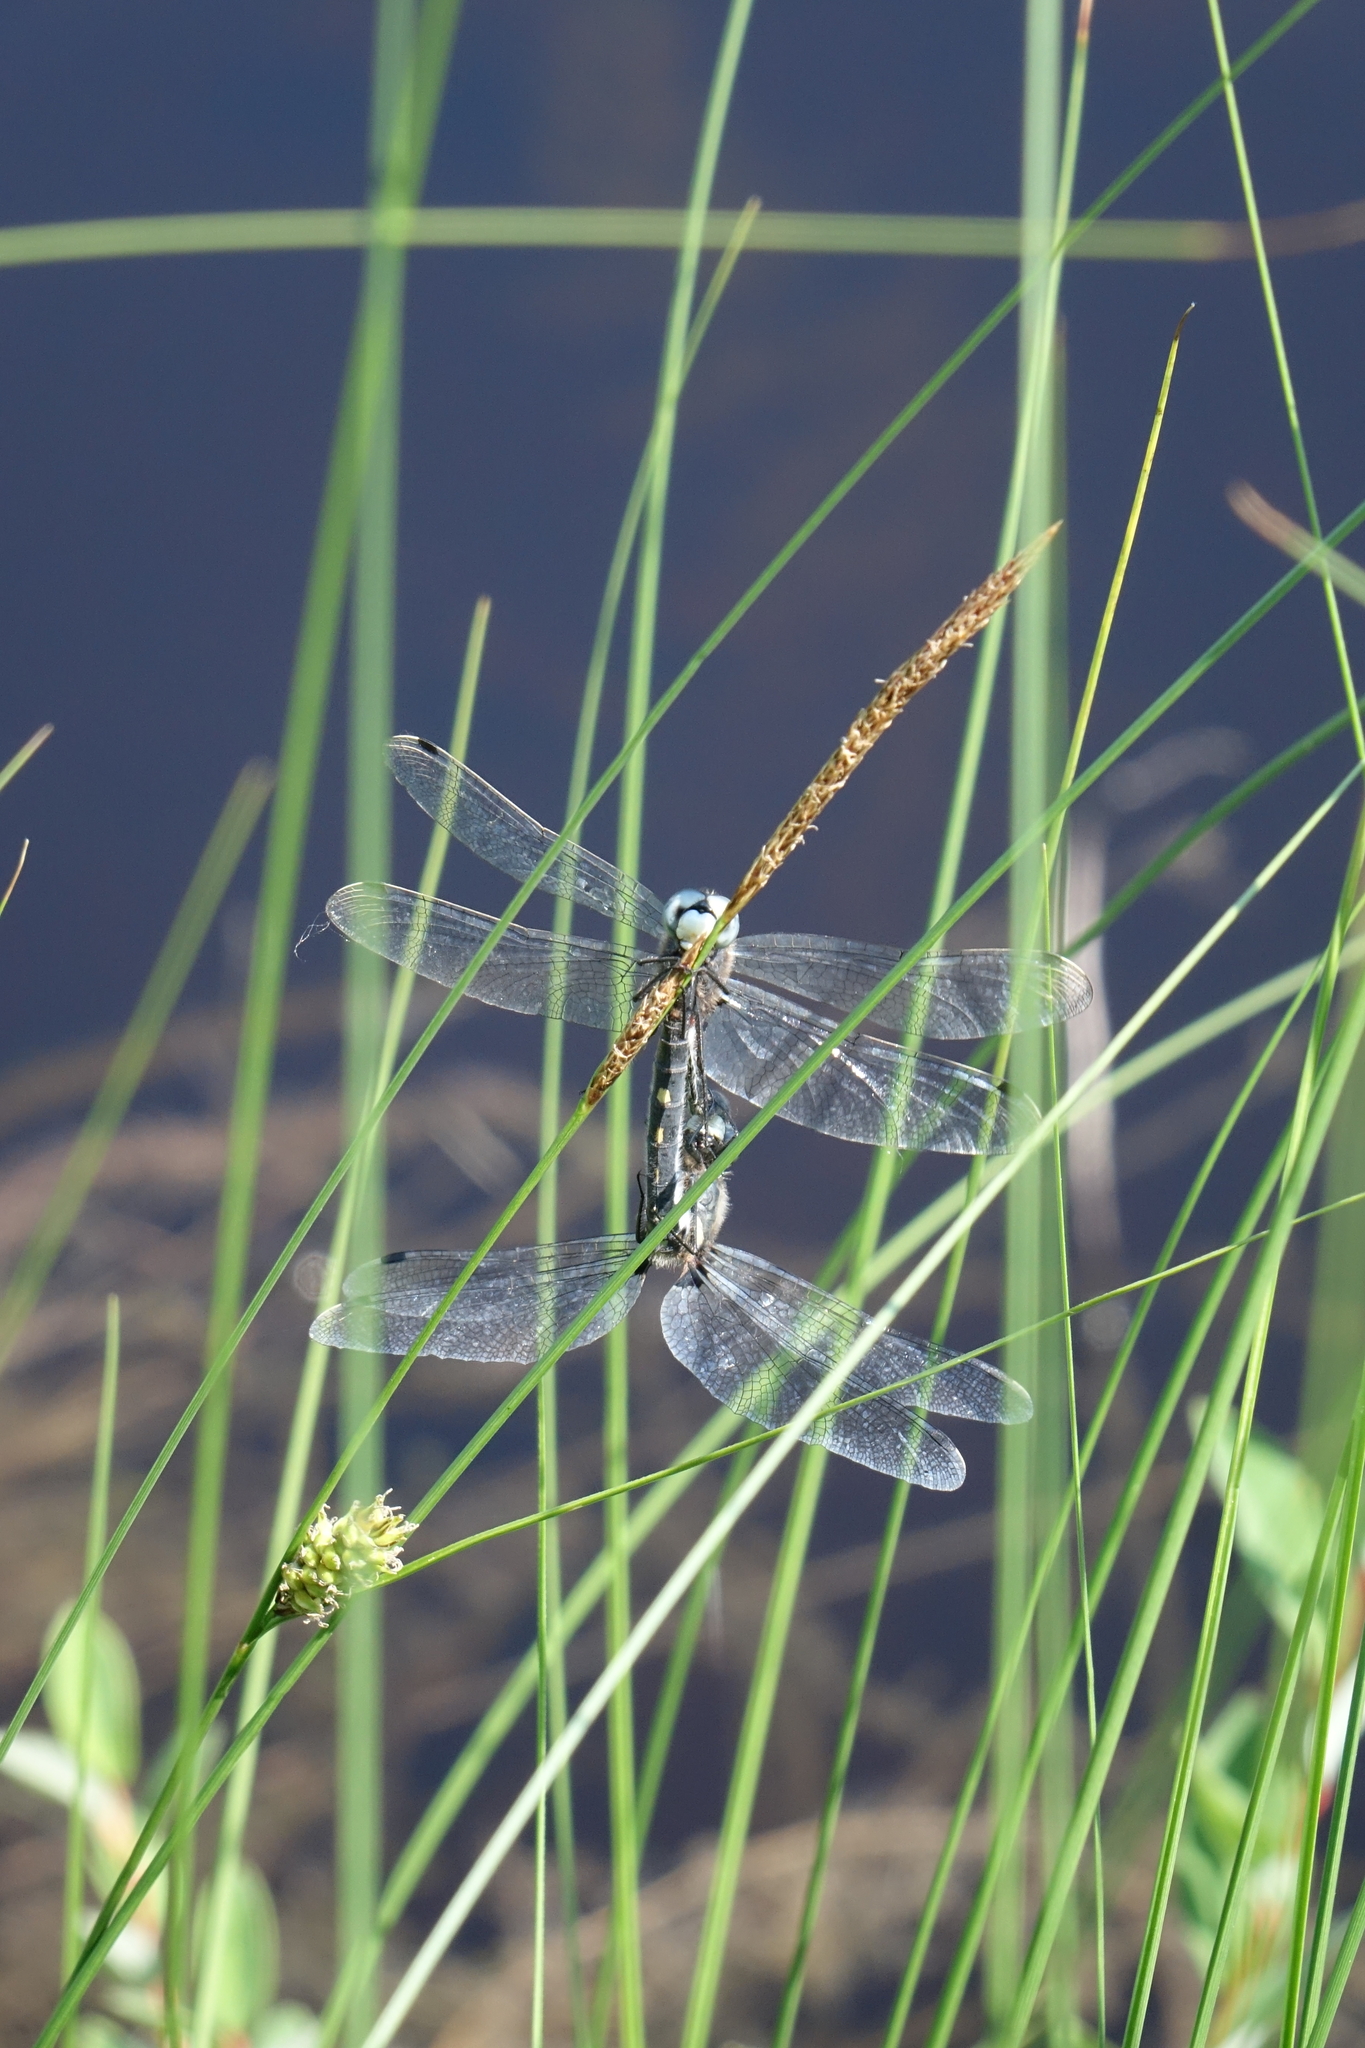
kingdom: Animalia
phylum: Arthropoda
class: Insecta
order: Odonata
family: Libellulidae
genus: Leucorrhinia
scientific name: Leucorrhinia orientalis
